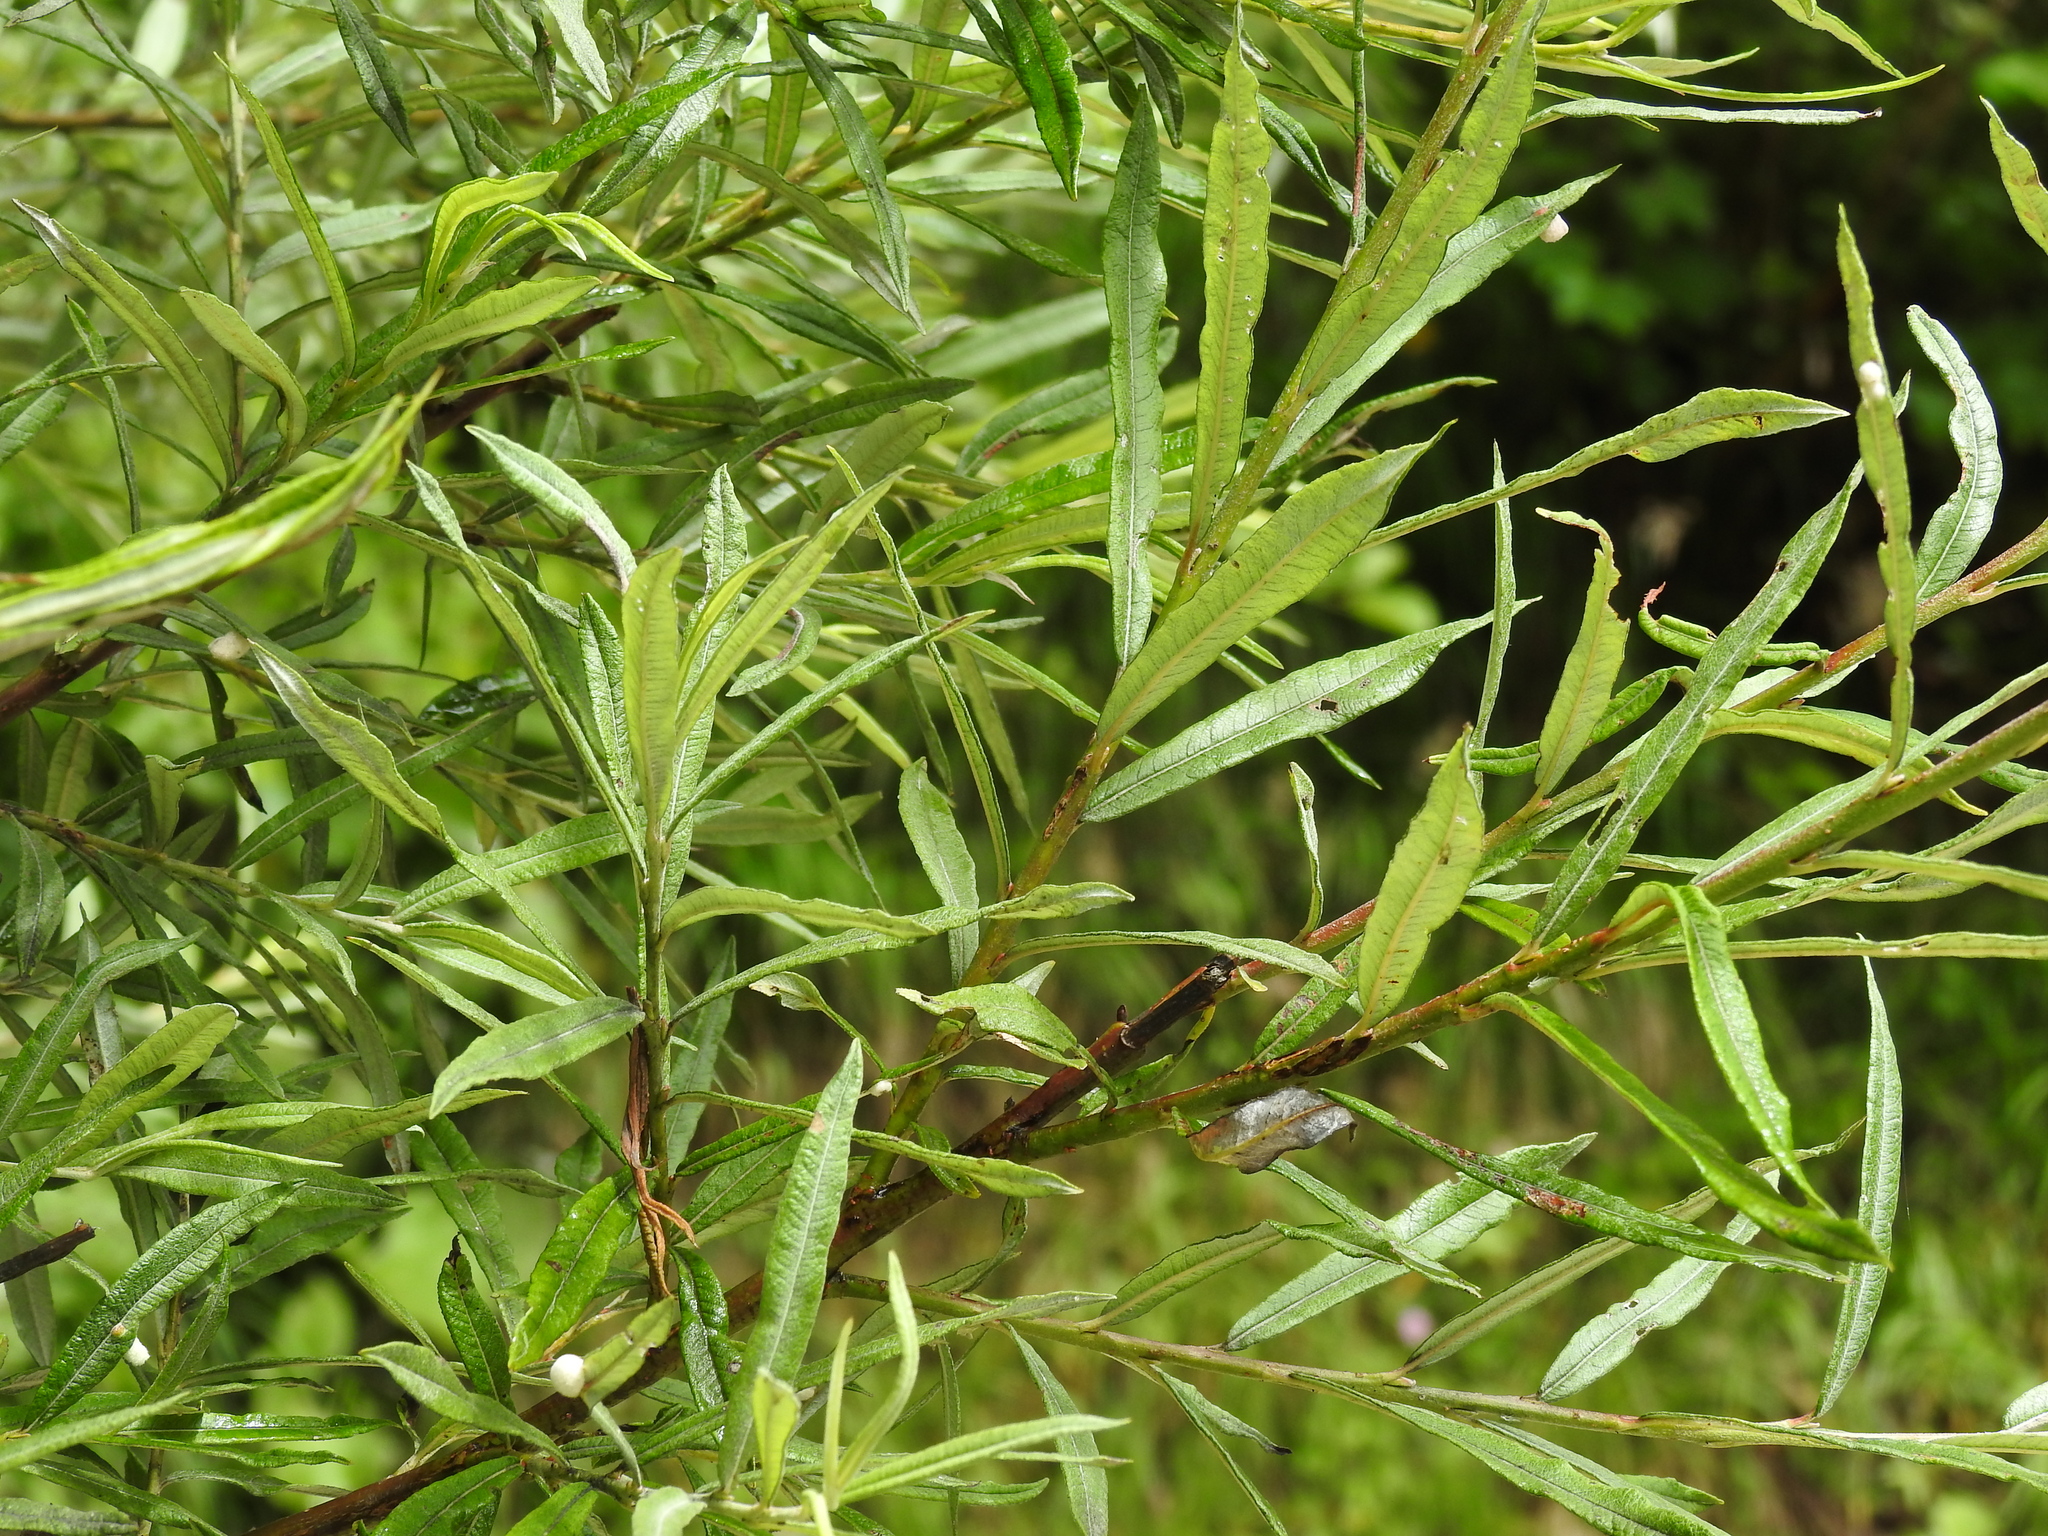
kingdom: Plantae
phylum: Tracheophyta
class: Magnoliopsida
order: Malpighiales
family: Salicaceae
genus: Salix
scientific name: Salix eleagnos
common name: Elaeagnus willow
